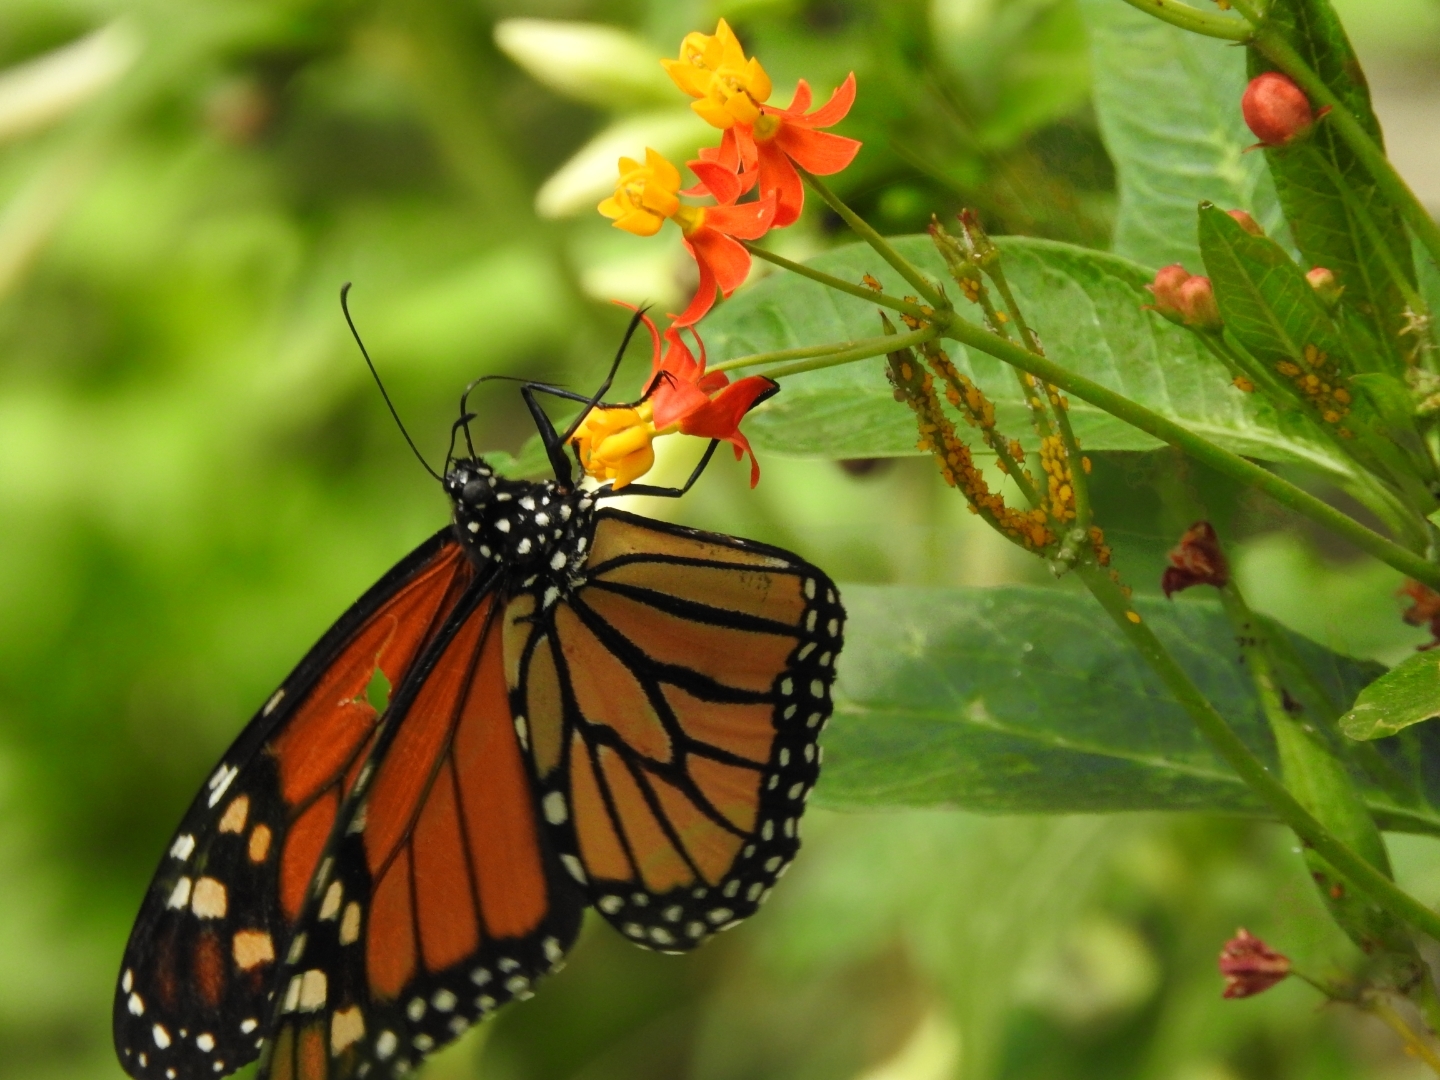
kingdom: Animalia
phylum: Arthropoda
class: Insecta
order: Lepidoptera
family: Nymphalidae
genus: Danaus
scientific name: Danaus plexippus
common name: Monarch
